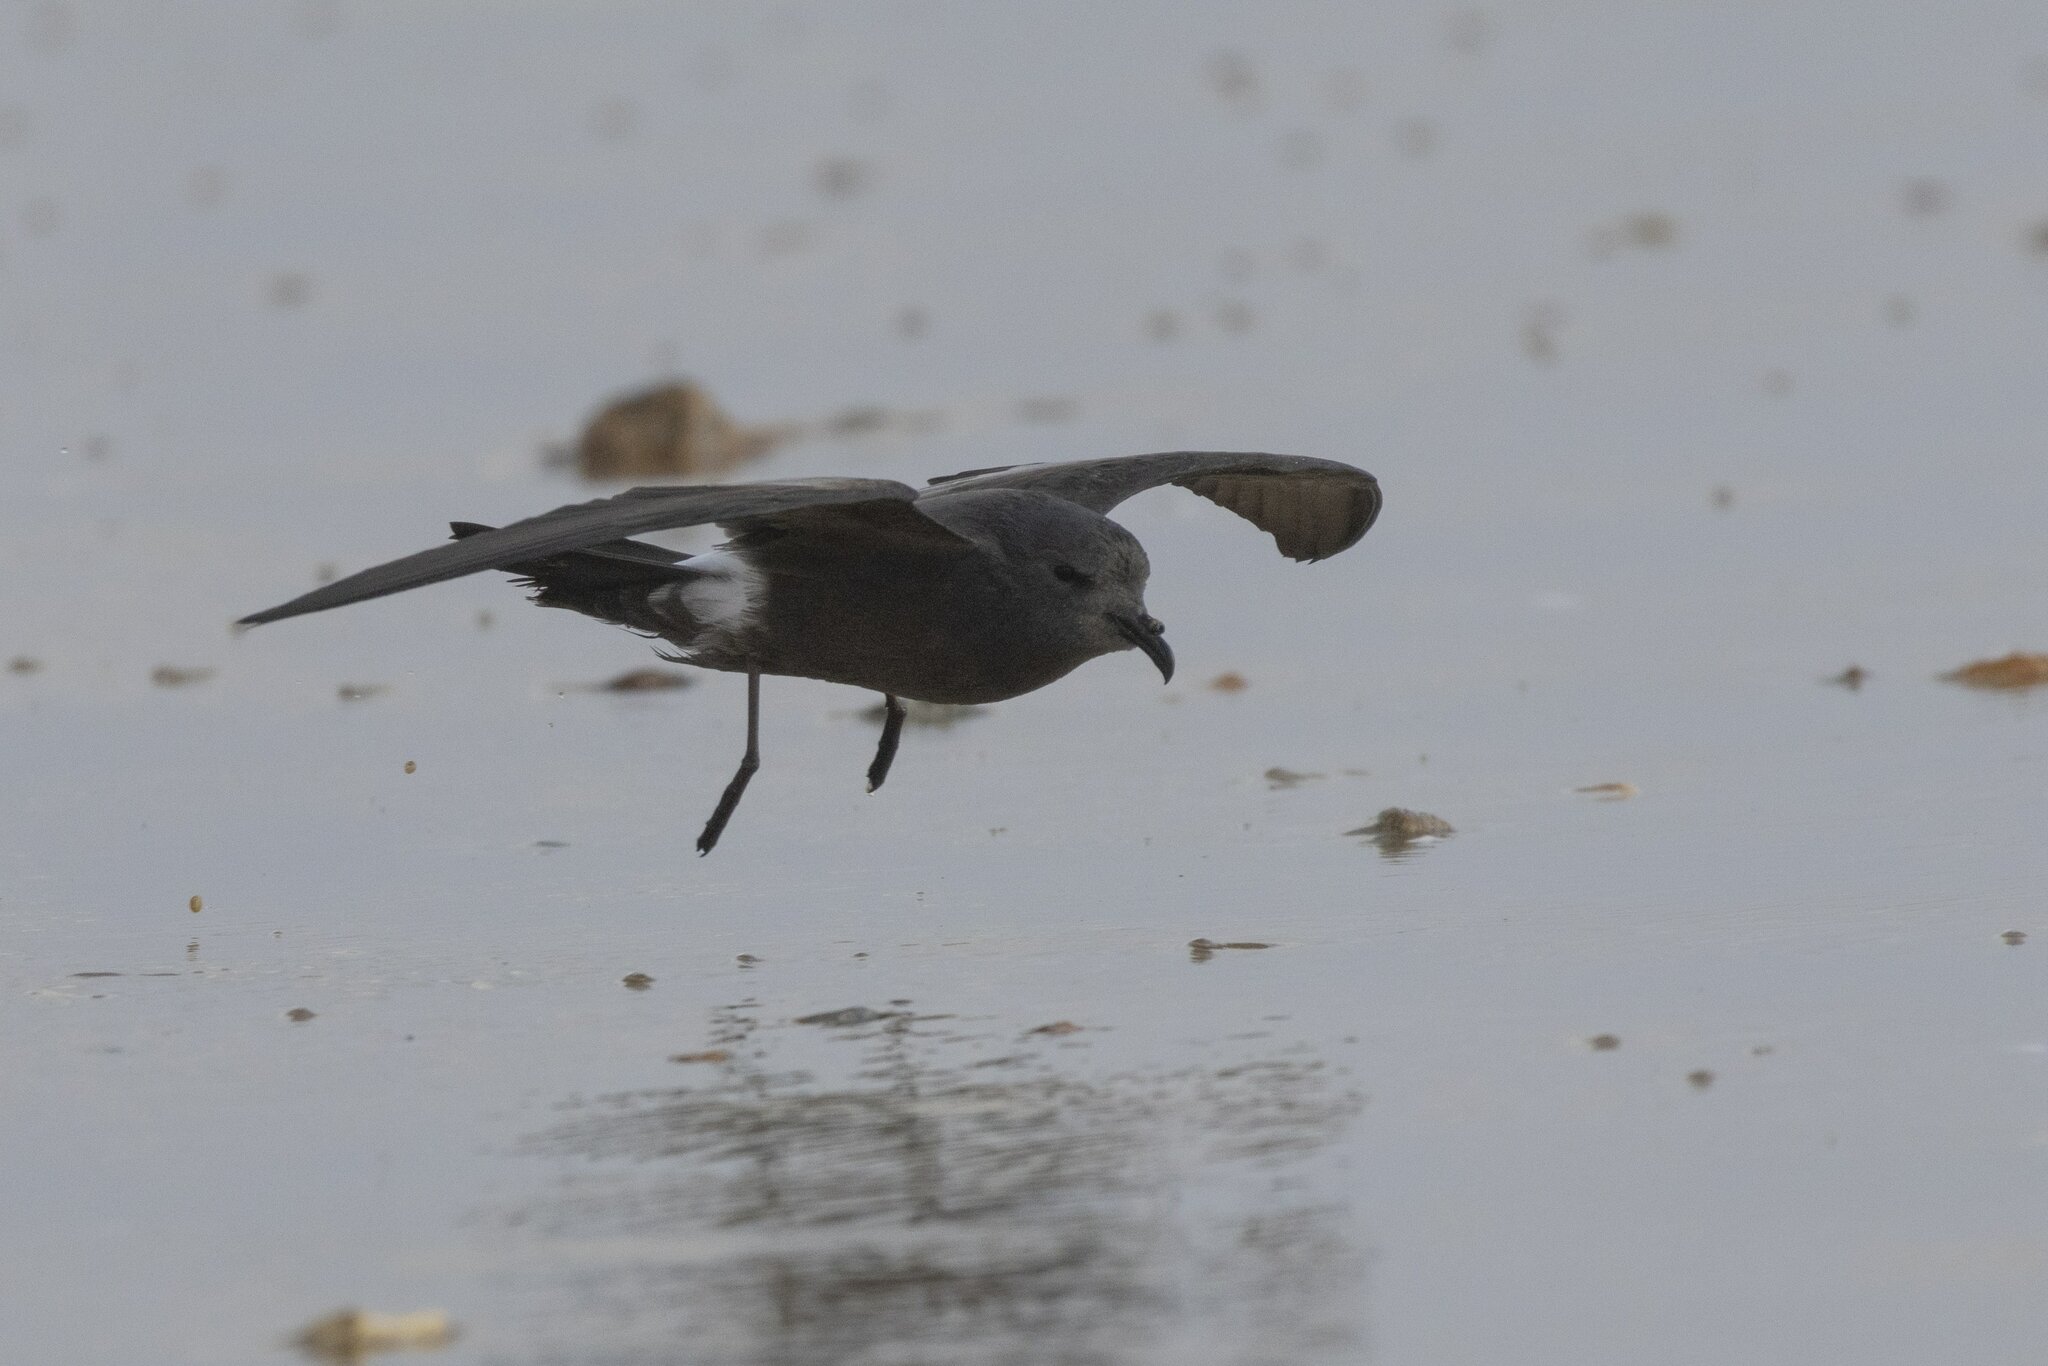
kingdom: Animalia
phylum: Chordata
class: Aves
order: Procellariiformes
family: Hydrobatidae
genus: Oceanodroma
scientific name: Oceanodroma leucorhoa
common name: Leach's storm-petrel
